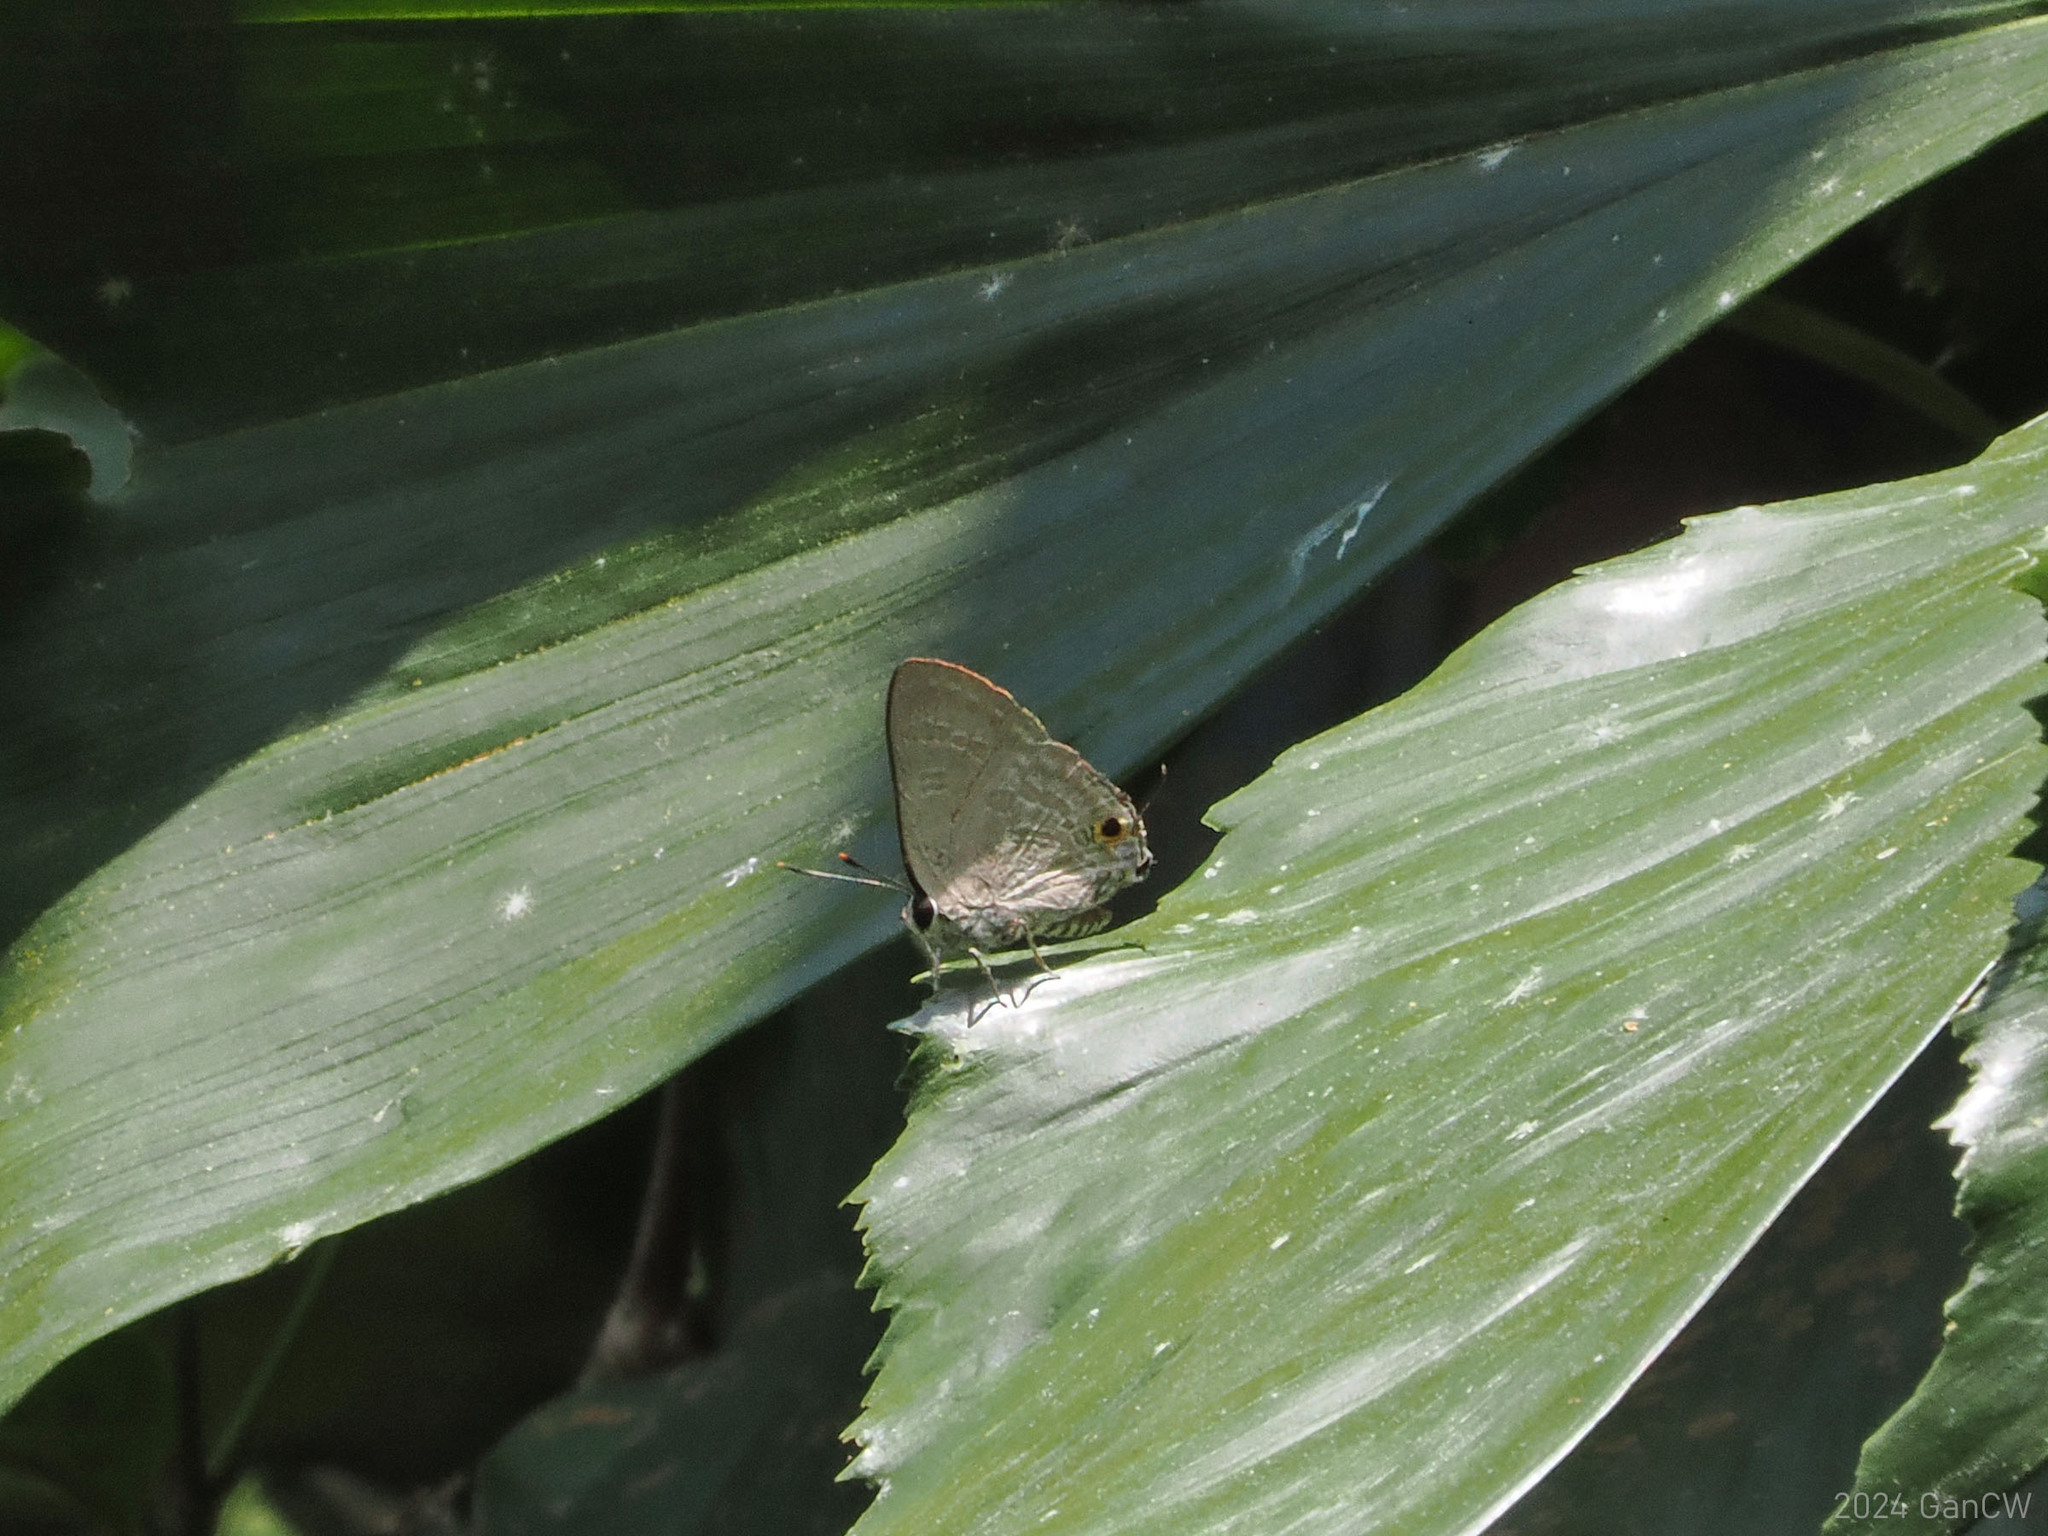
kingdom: Animalia
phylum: Arthropoda
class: Insecta
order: Lepidoptera
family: Lycaenidae
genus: Deudorix
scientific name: Deudorix elioti
